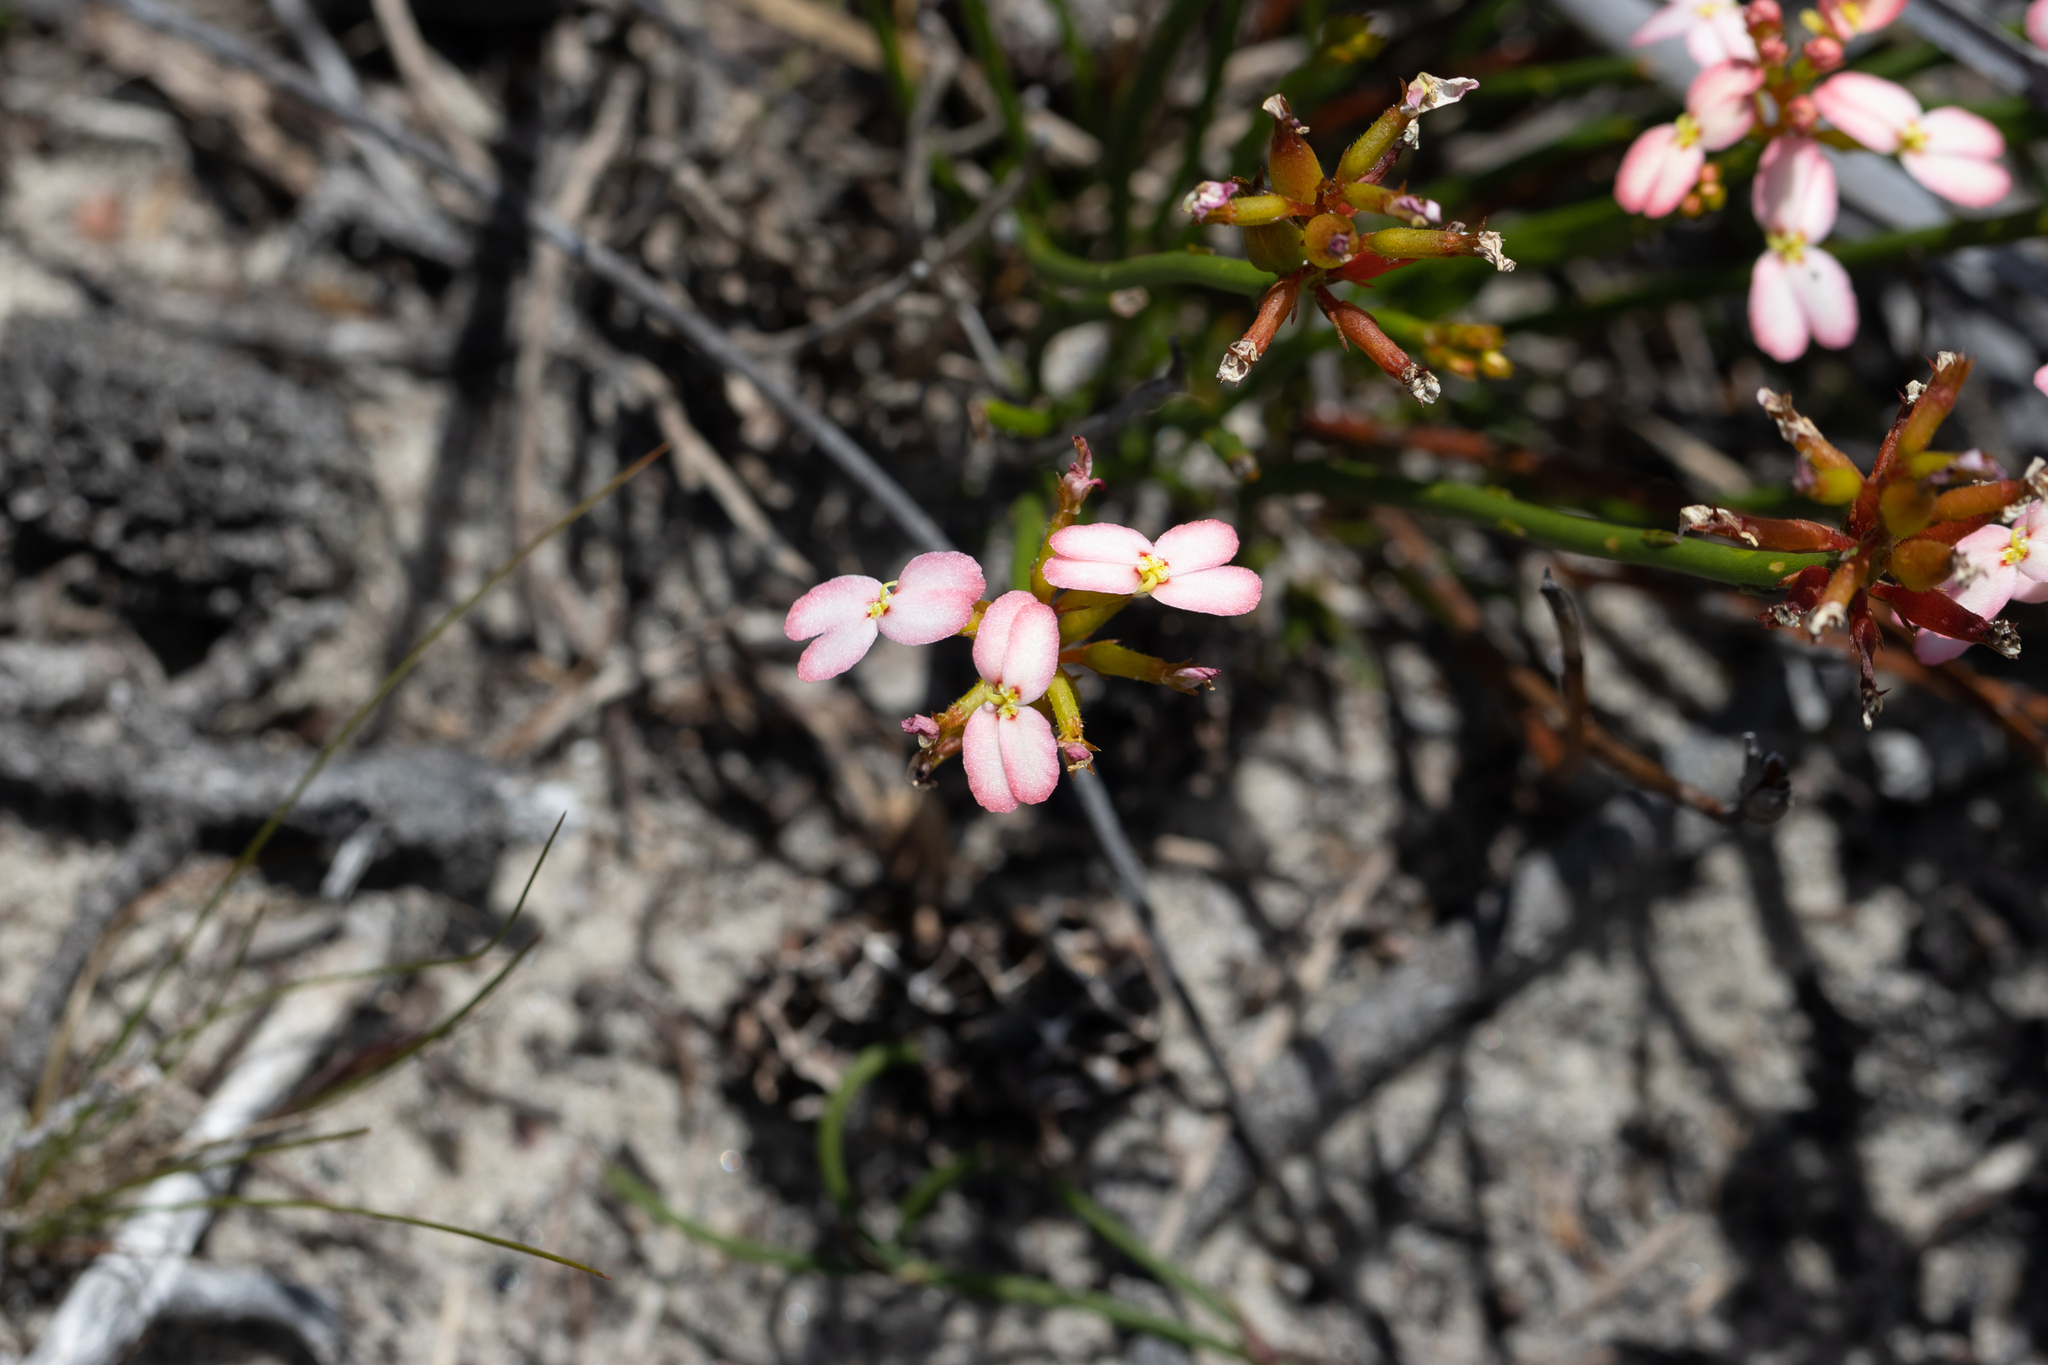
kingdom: Plantae
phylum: Tracheophyta
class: Magnoliopsida
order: Asterales
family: Stylidiaceae
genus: Stylidium
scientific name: Stylidium junceum
